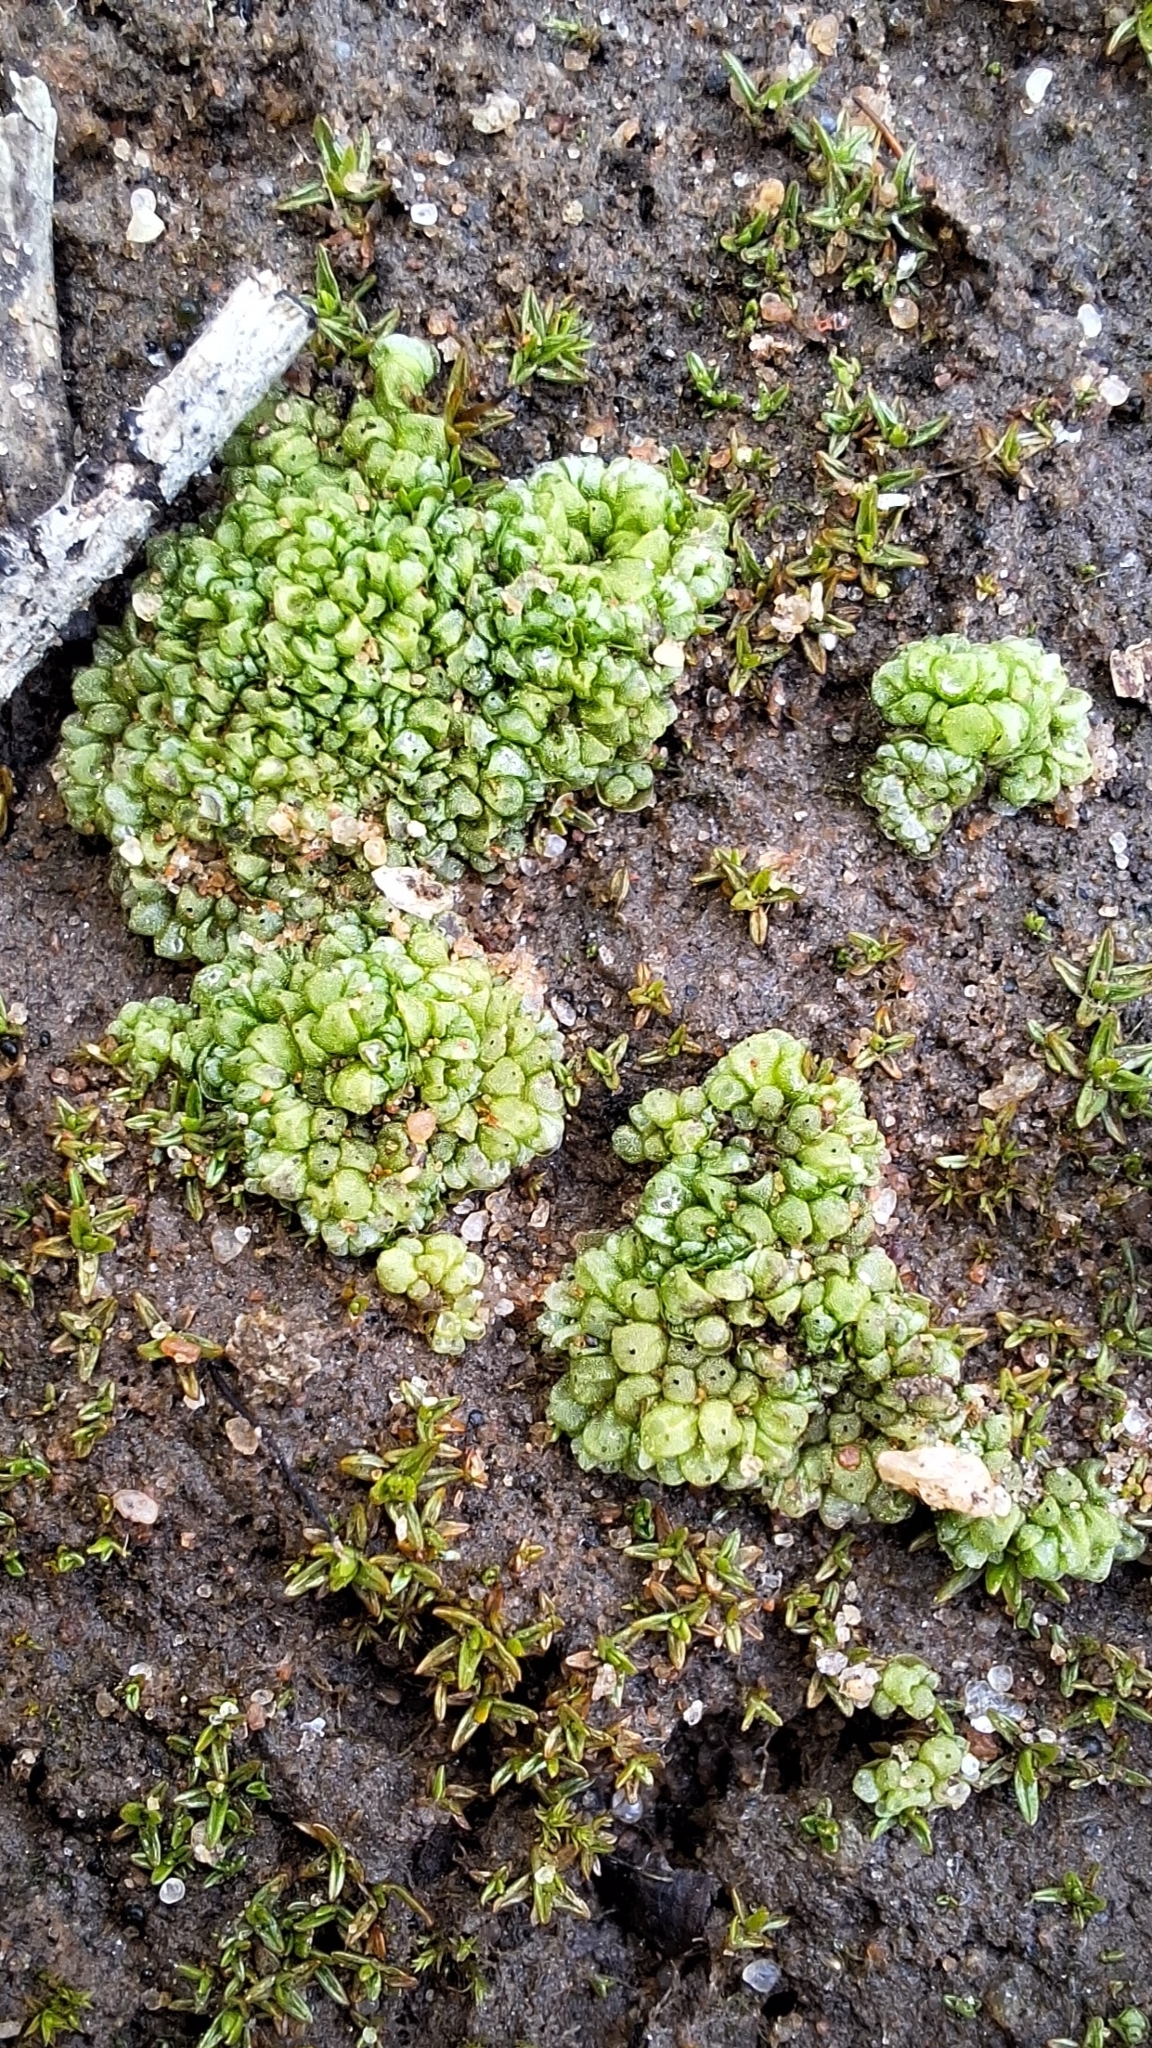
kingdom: Plantae
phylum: Marchantiophyta
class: Marchantiopsida
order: Sphaerocarpales
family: Sphaerocarpaceae
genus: Sphaerocarpos
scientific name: Sphaerocarpos texanus
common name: Texas balloonwort
